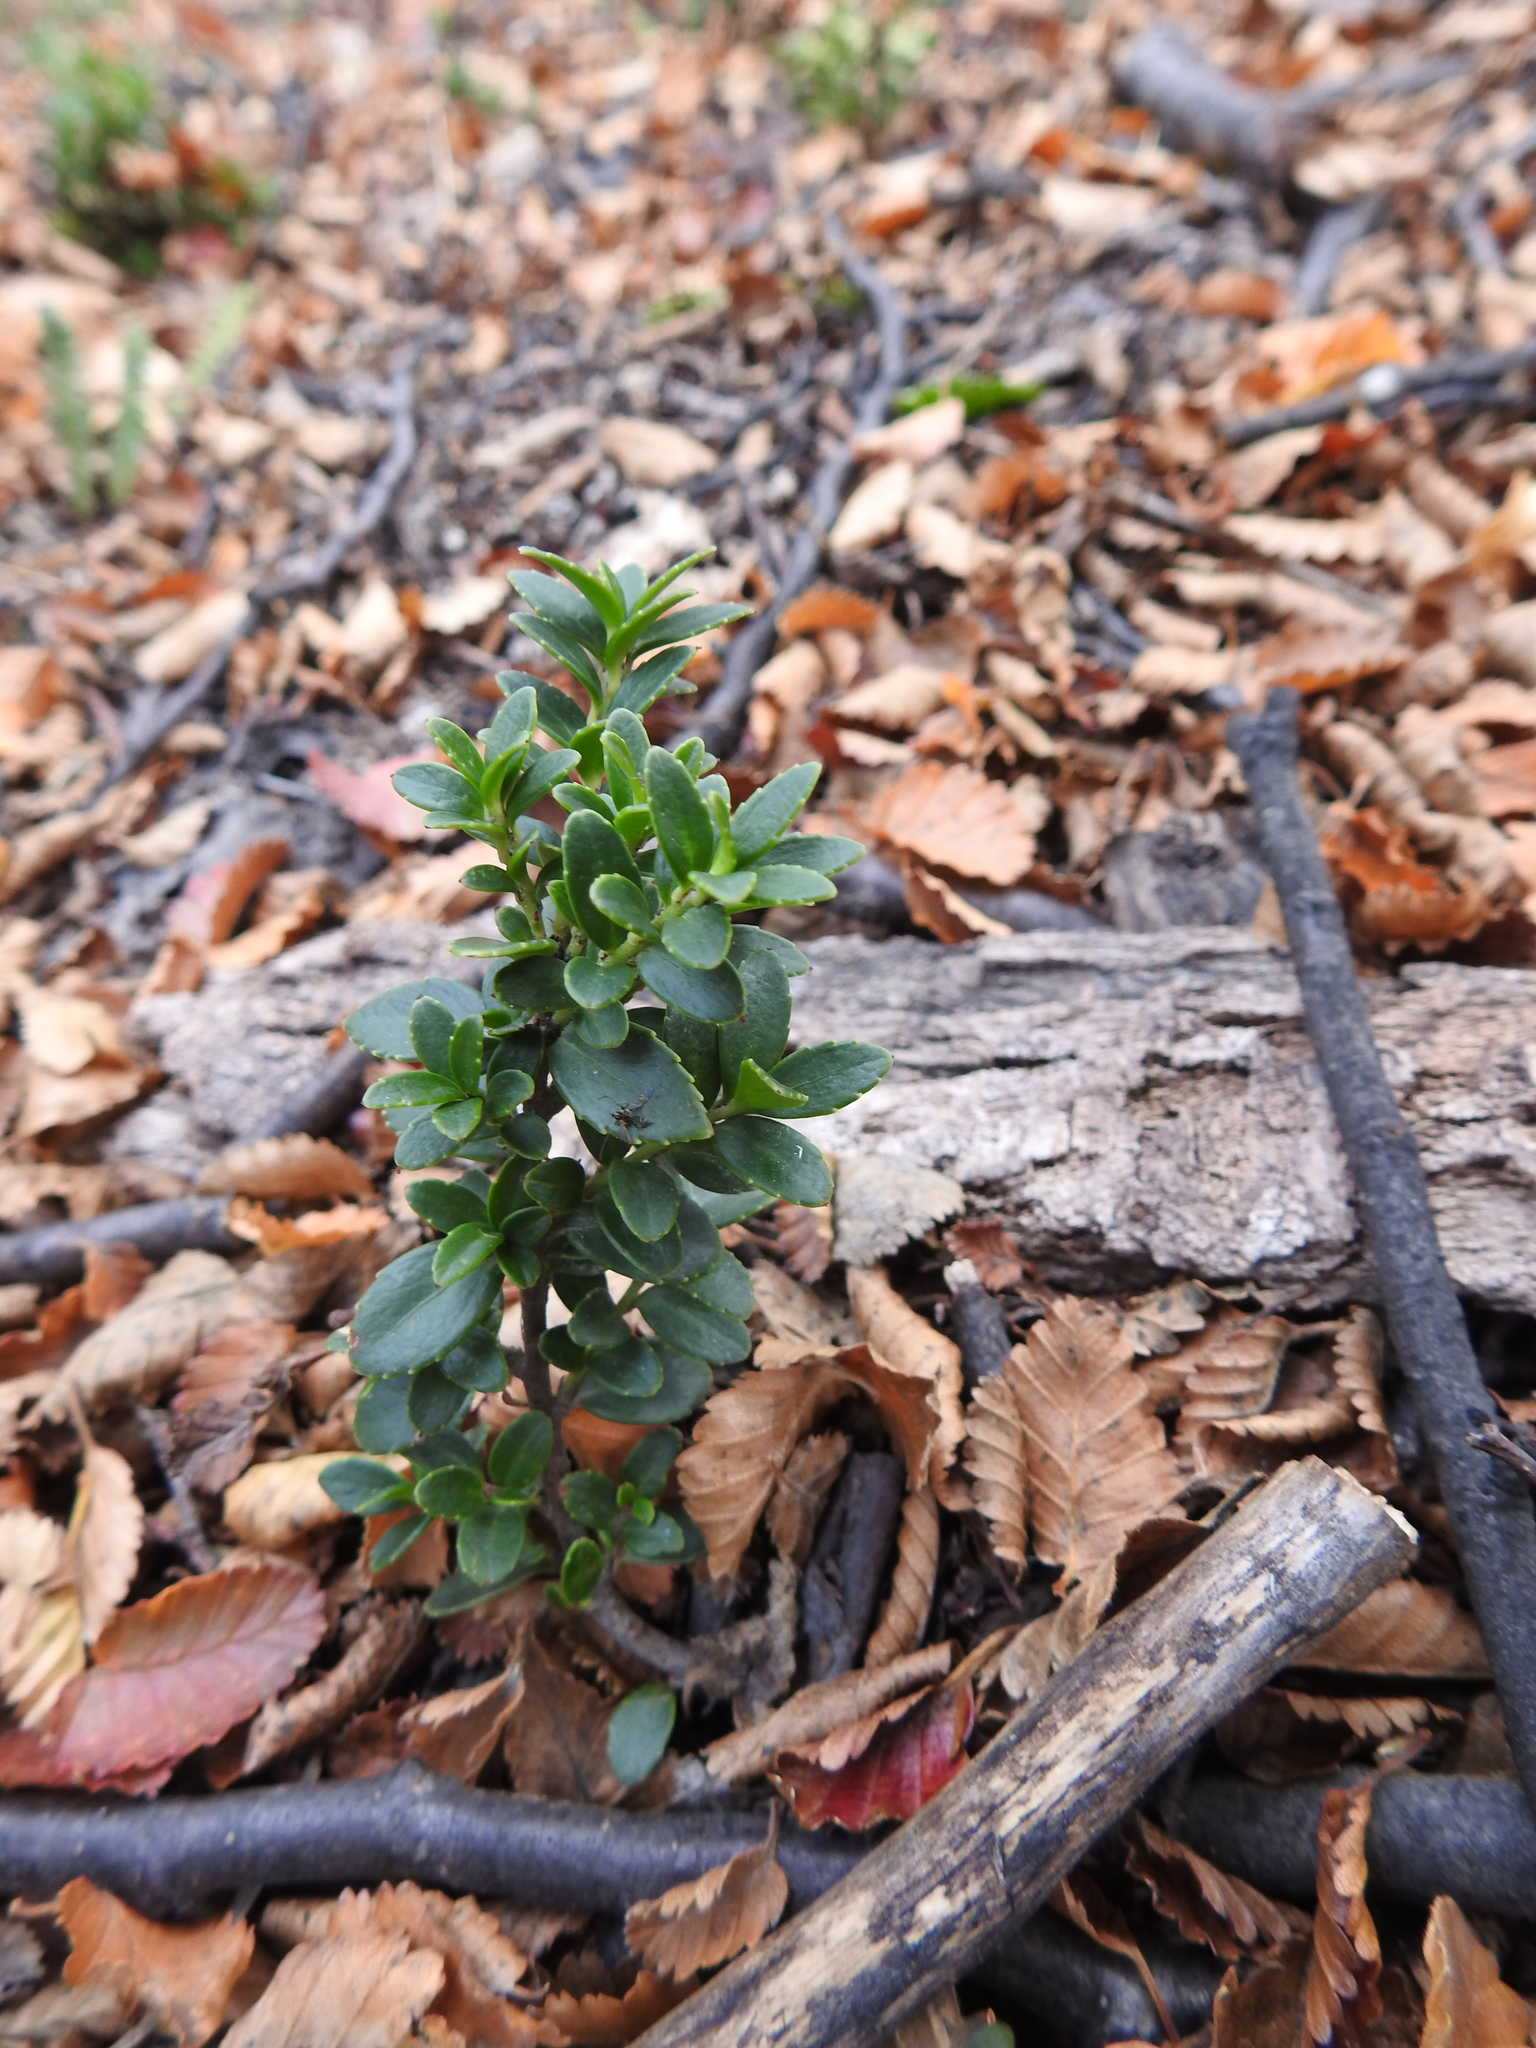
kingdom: Plantae
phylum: Tracheophyta
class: Magnoliopsida
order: Ericales
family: Ericaceae
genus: Gaultheria
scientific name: Gaultheria mucronata
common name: Prickly heath
